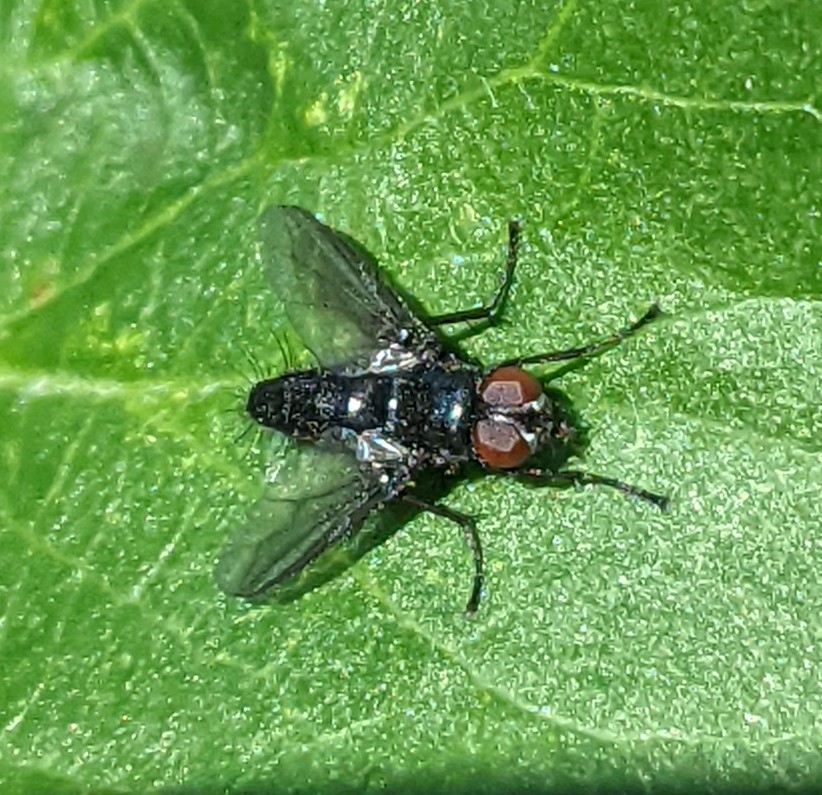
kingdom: Animalia
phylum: Arthropoda
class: Insecta
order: Diptera
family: Sarcophagidae
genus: Nyctia
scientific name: Nyctia halterata
